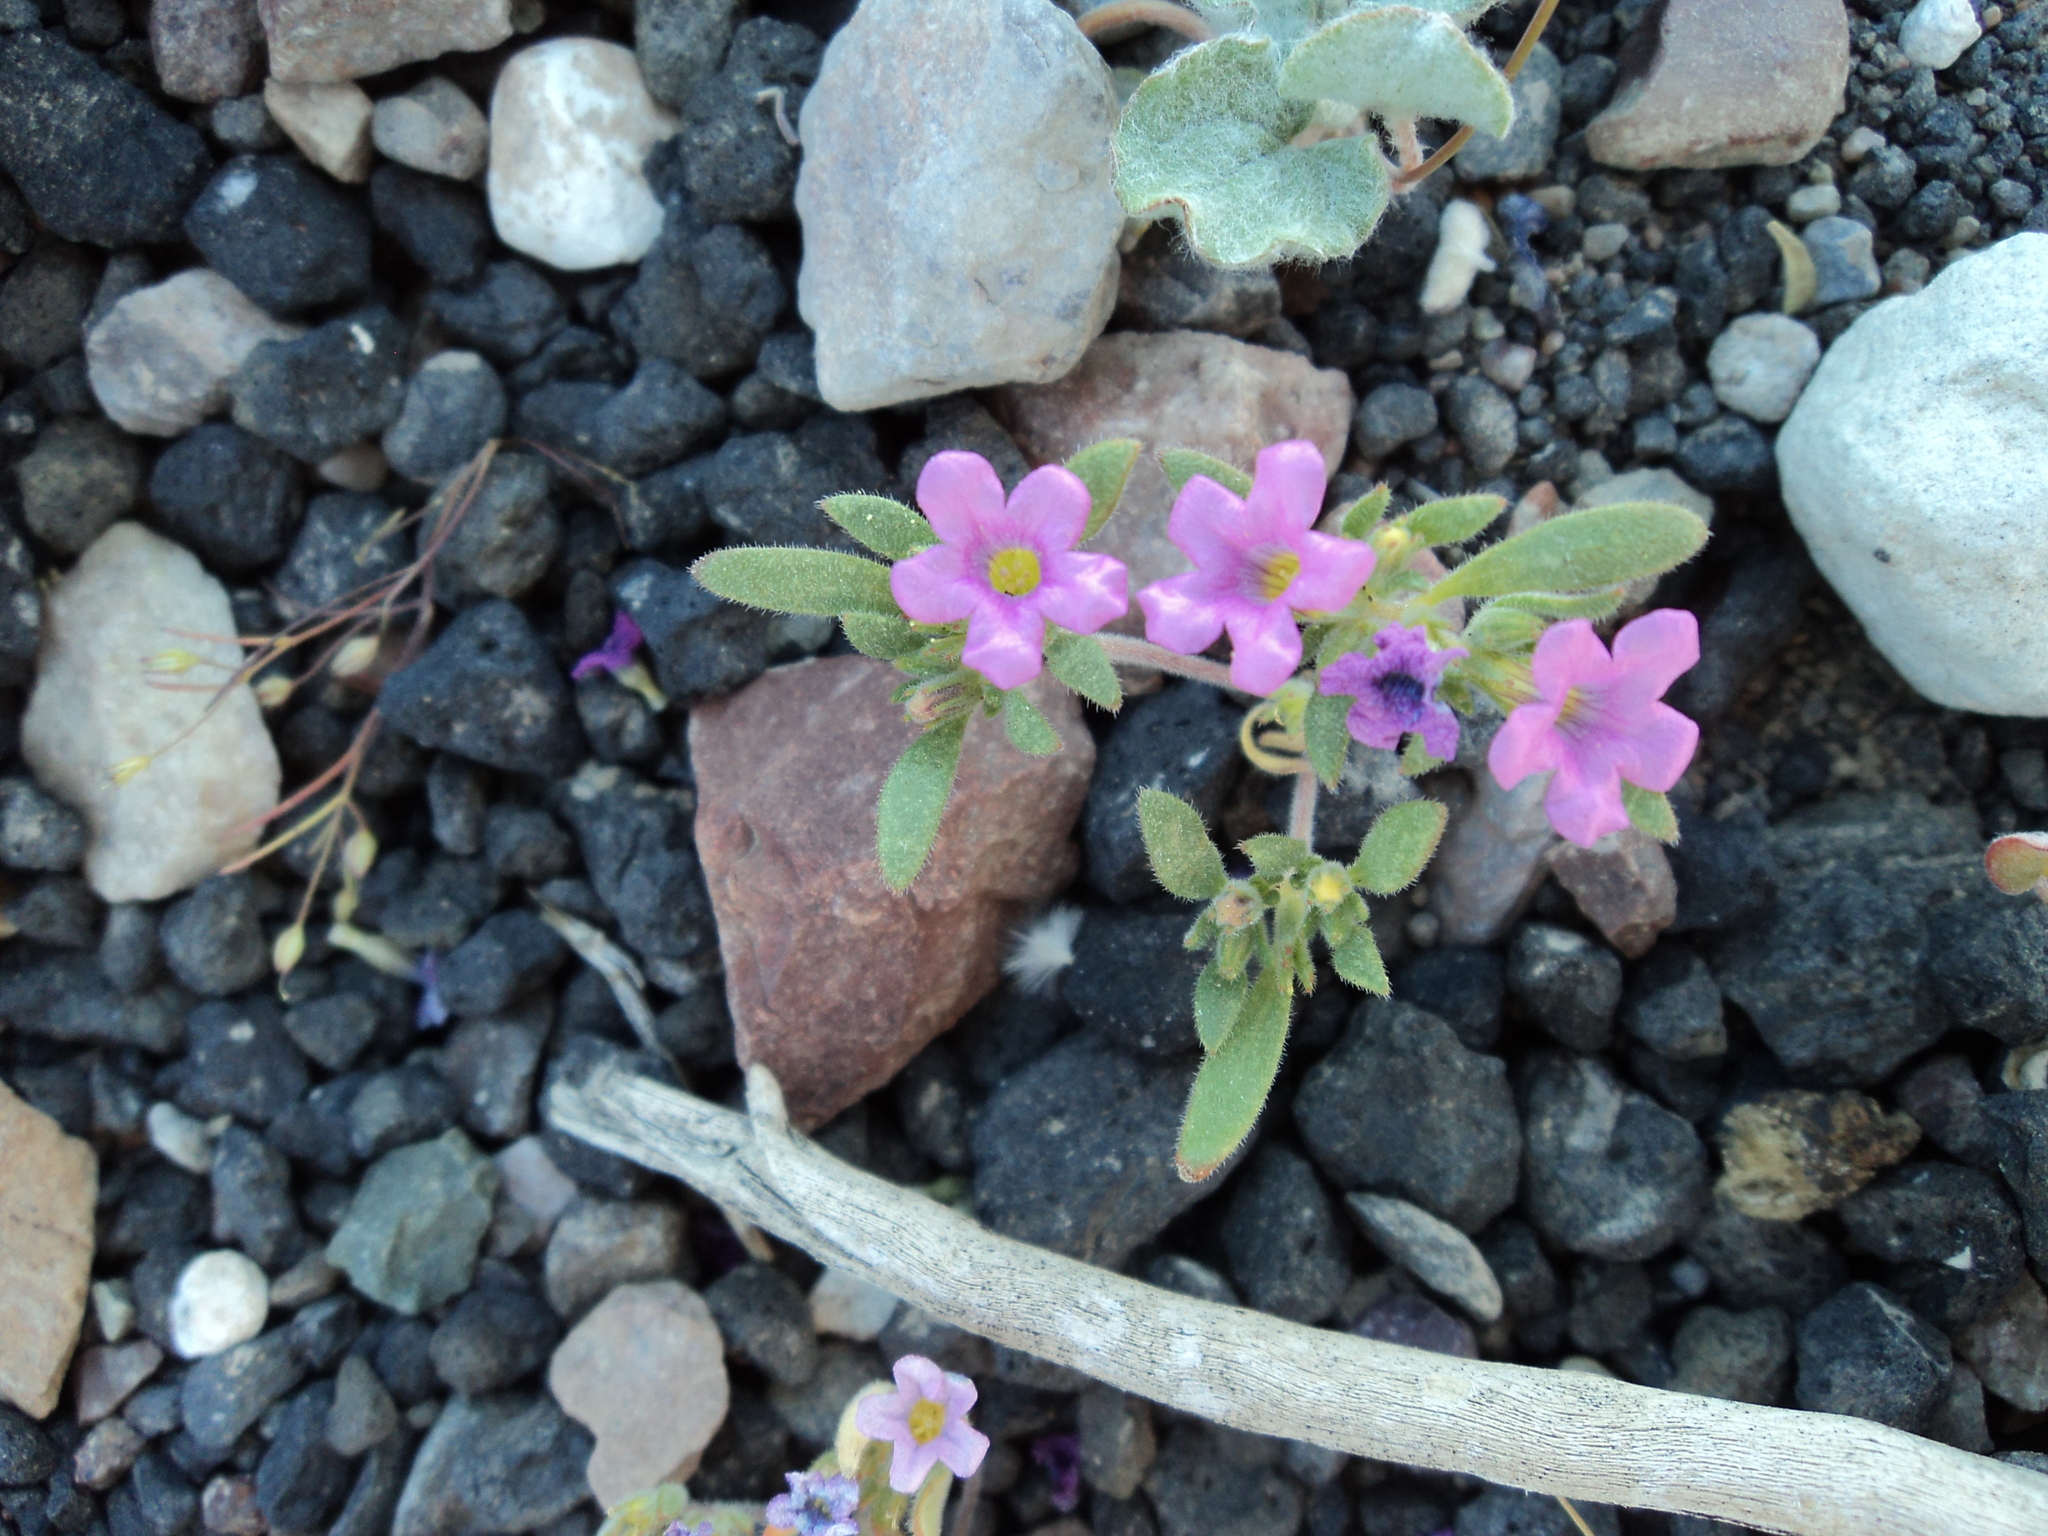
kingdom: Plantae
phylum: Tracheophyta
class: Magnoliopsida
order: Boraginales
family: Namaceae
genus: Nama
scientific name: Nama demissa
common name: Leafy nama
